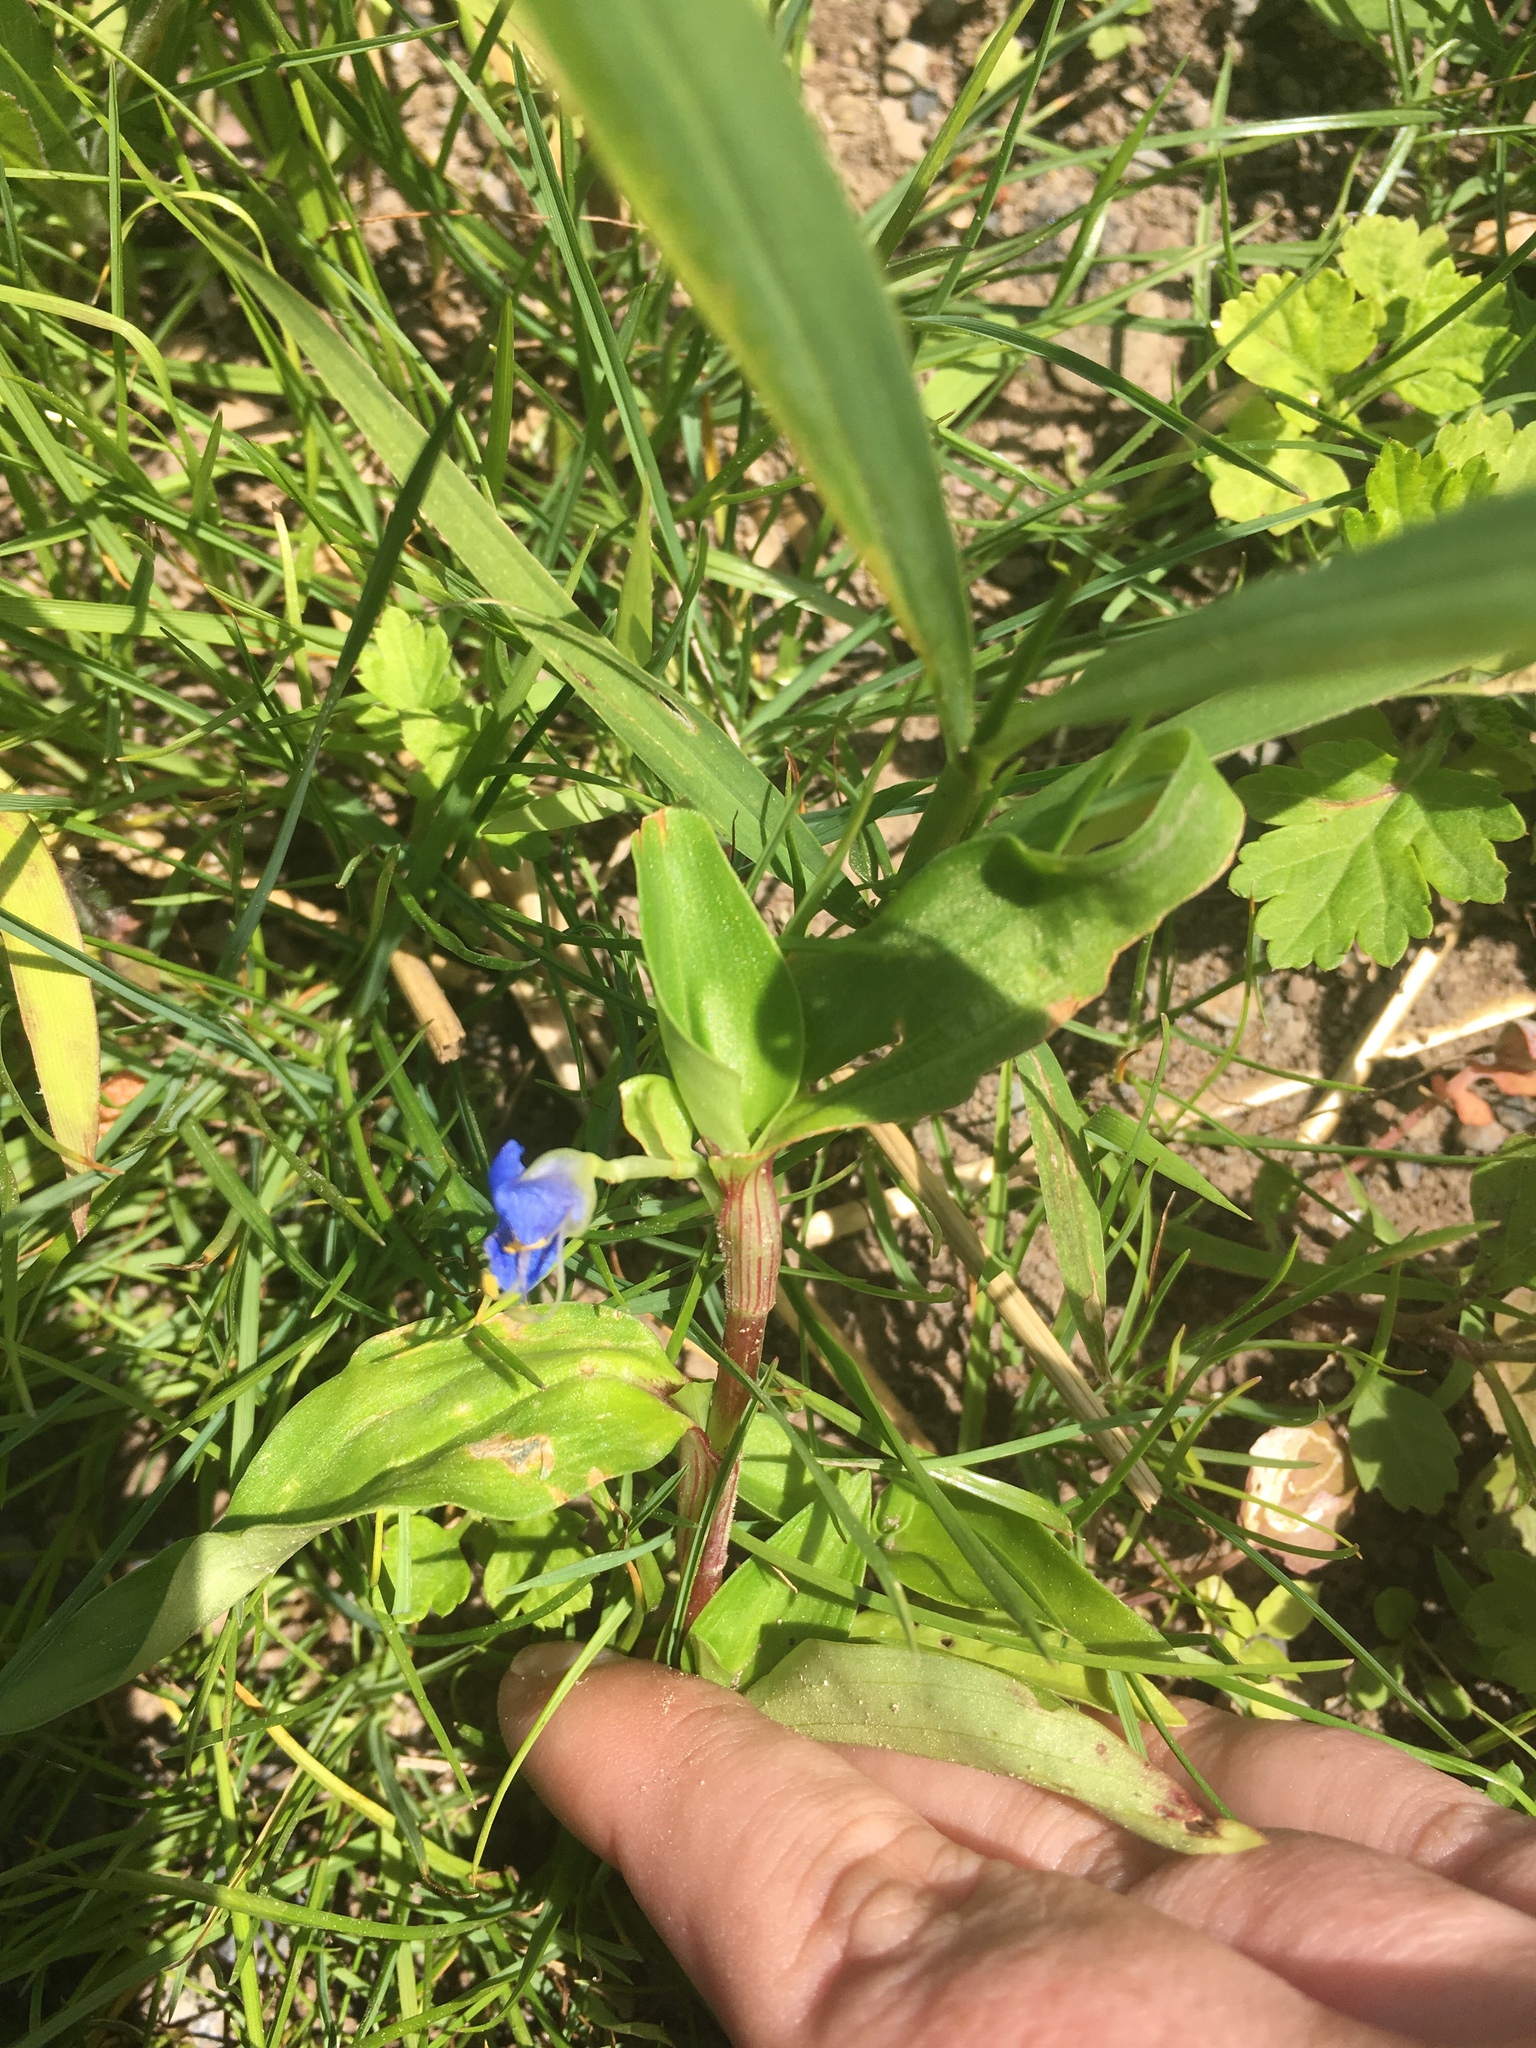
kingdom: Plantae
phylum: Tracheophyta
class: Liliopsida
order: Commelinales
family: Commelinaceae
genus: Commelina
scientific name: Commelina communis
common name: Asiatic dayflower
